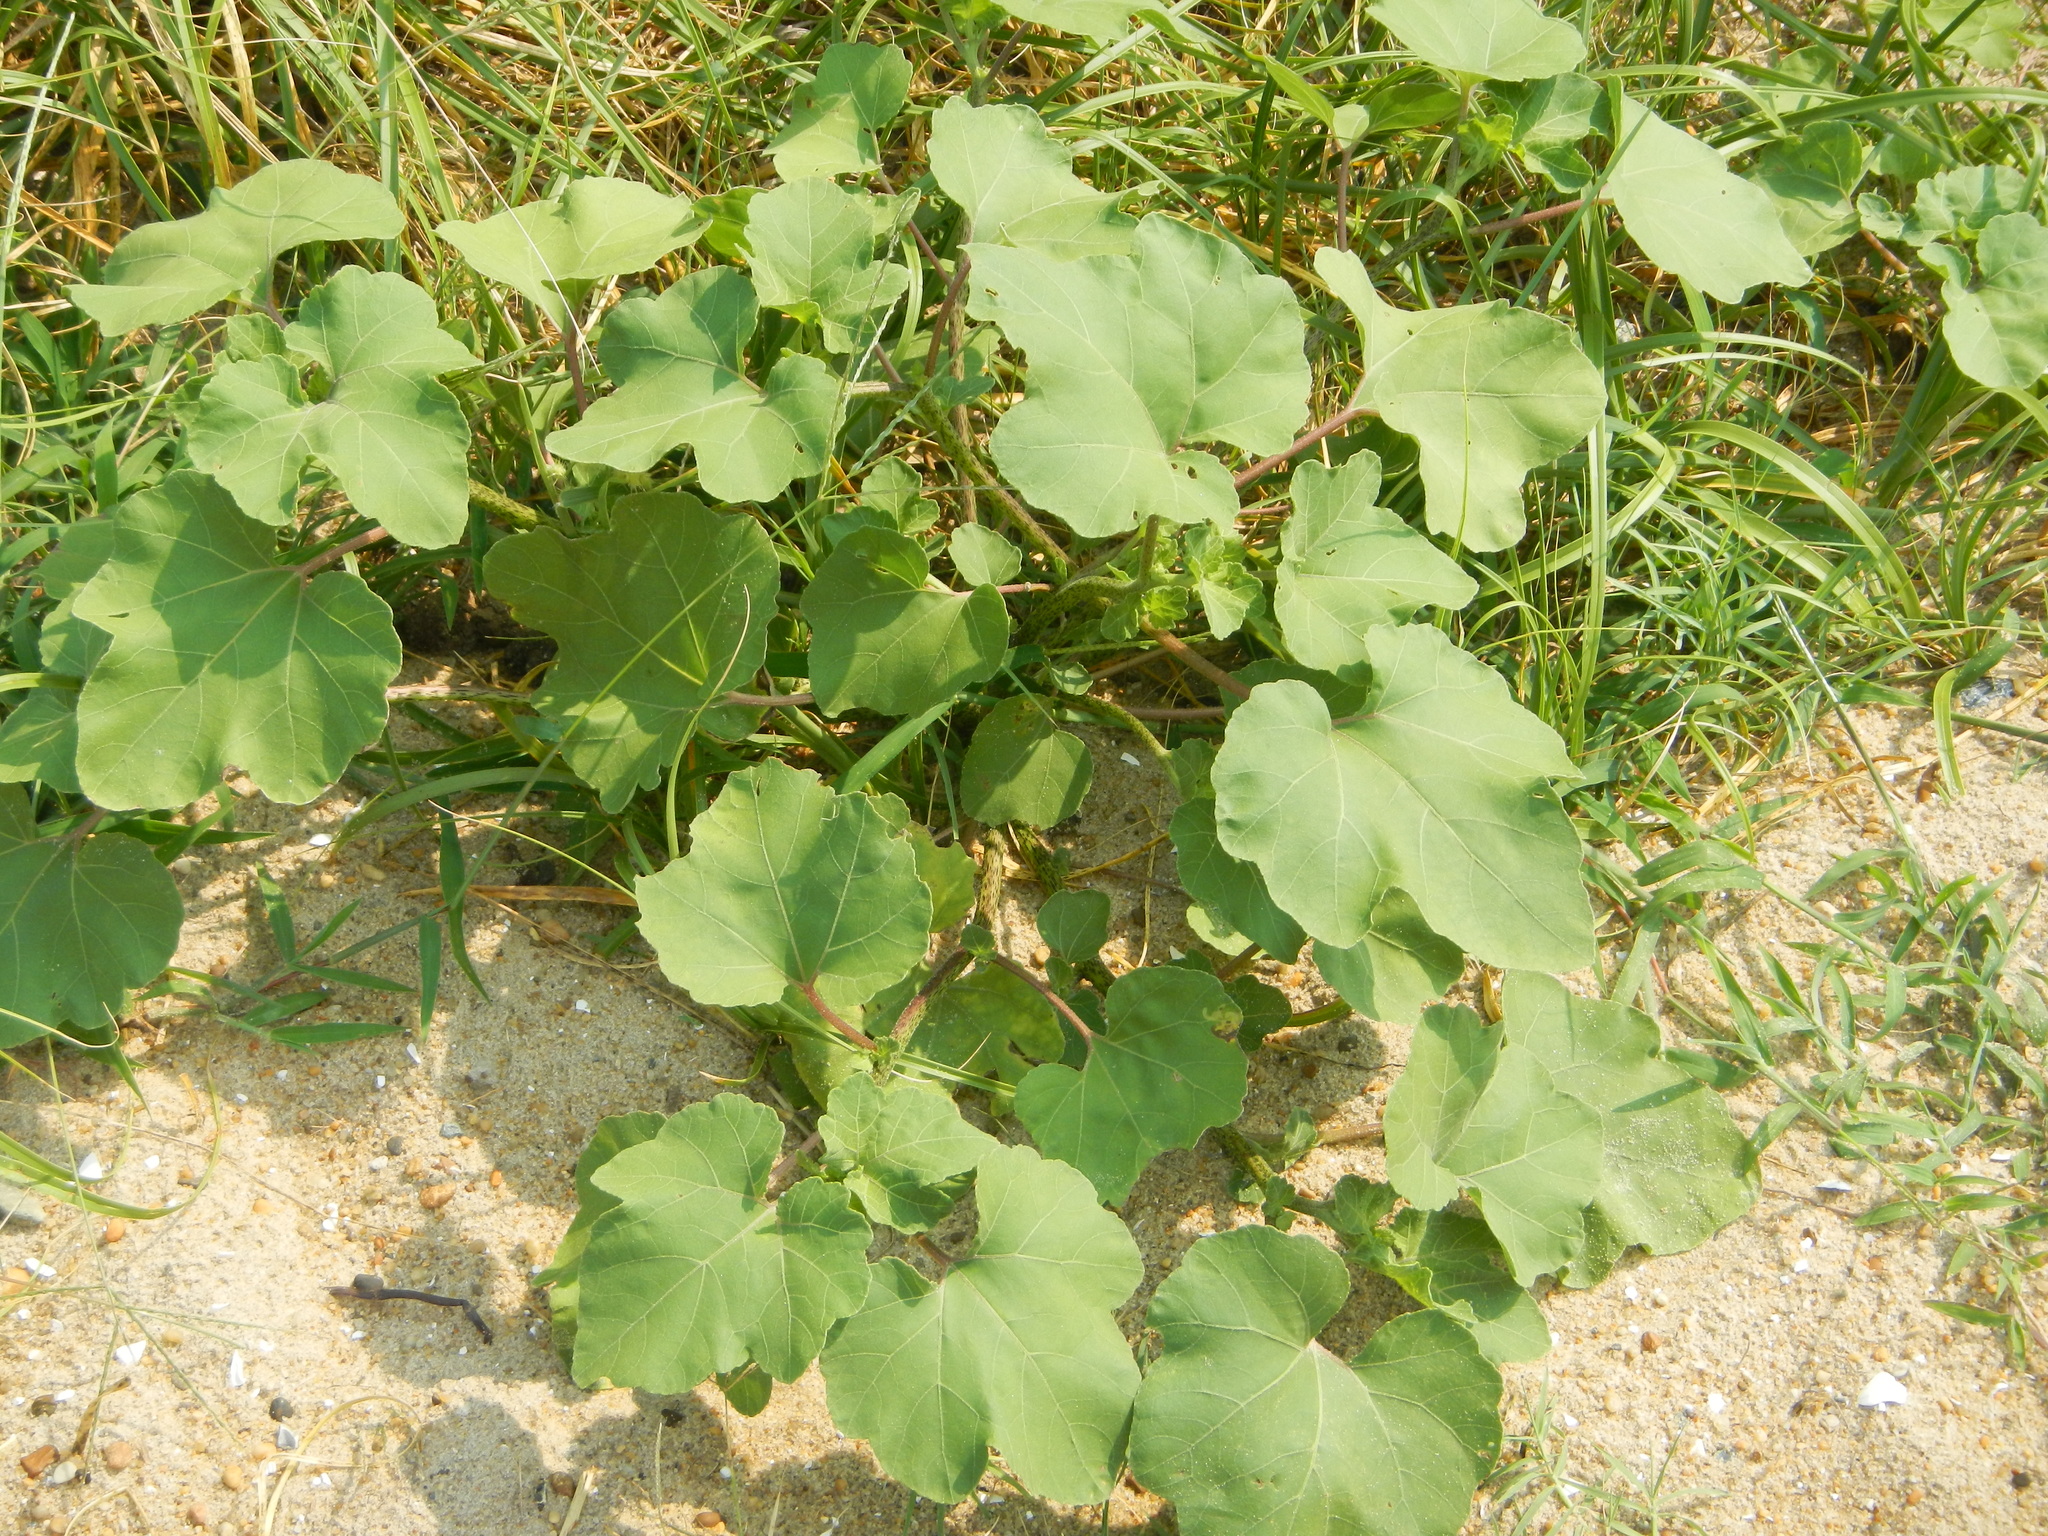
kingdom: Plantae
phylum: Tracheophyta
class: Magnoliopsida
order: Asterales
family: Asteraceae
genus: Xanthium
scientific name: Xanthium strumarium
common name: Rough cocklebur
